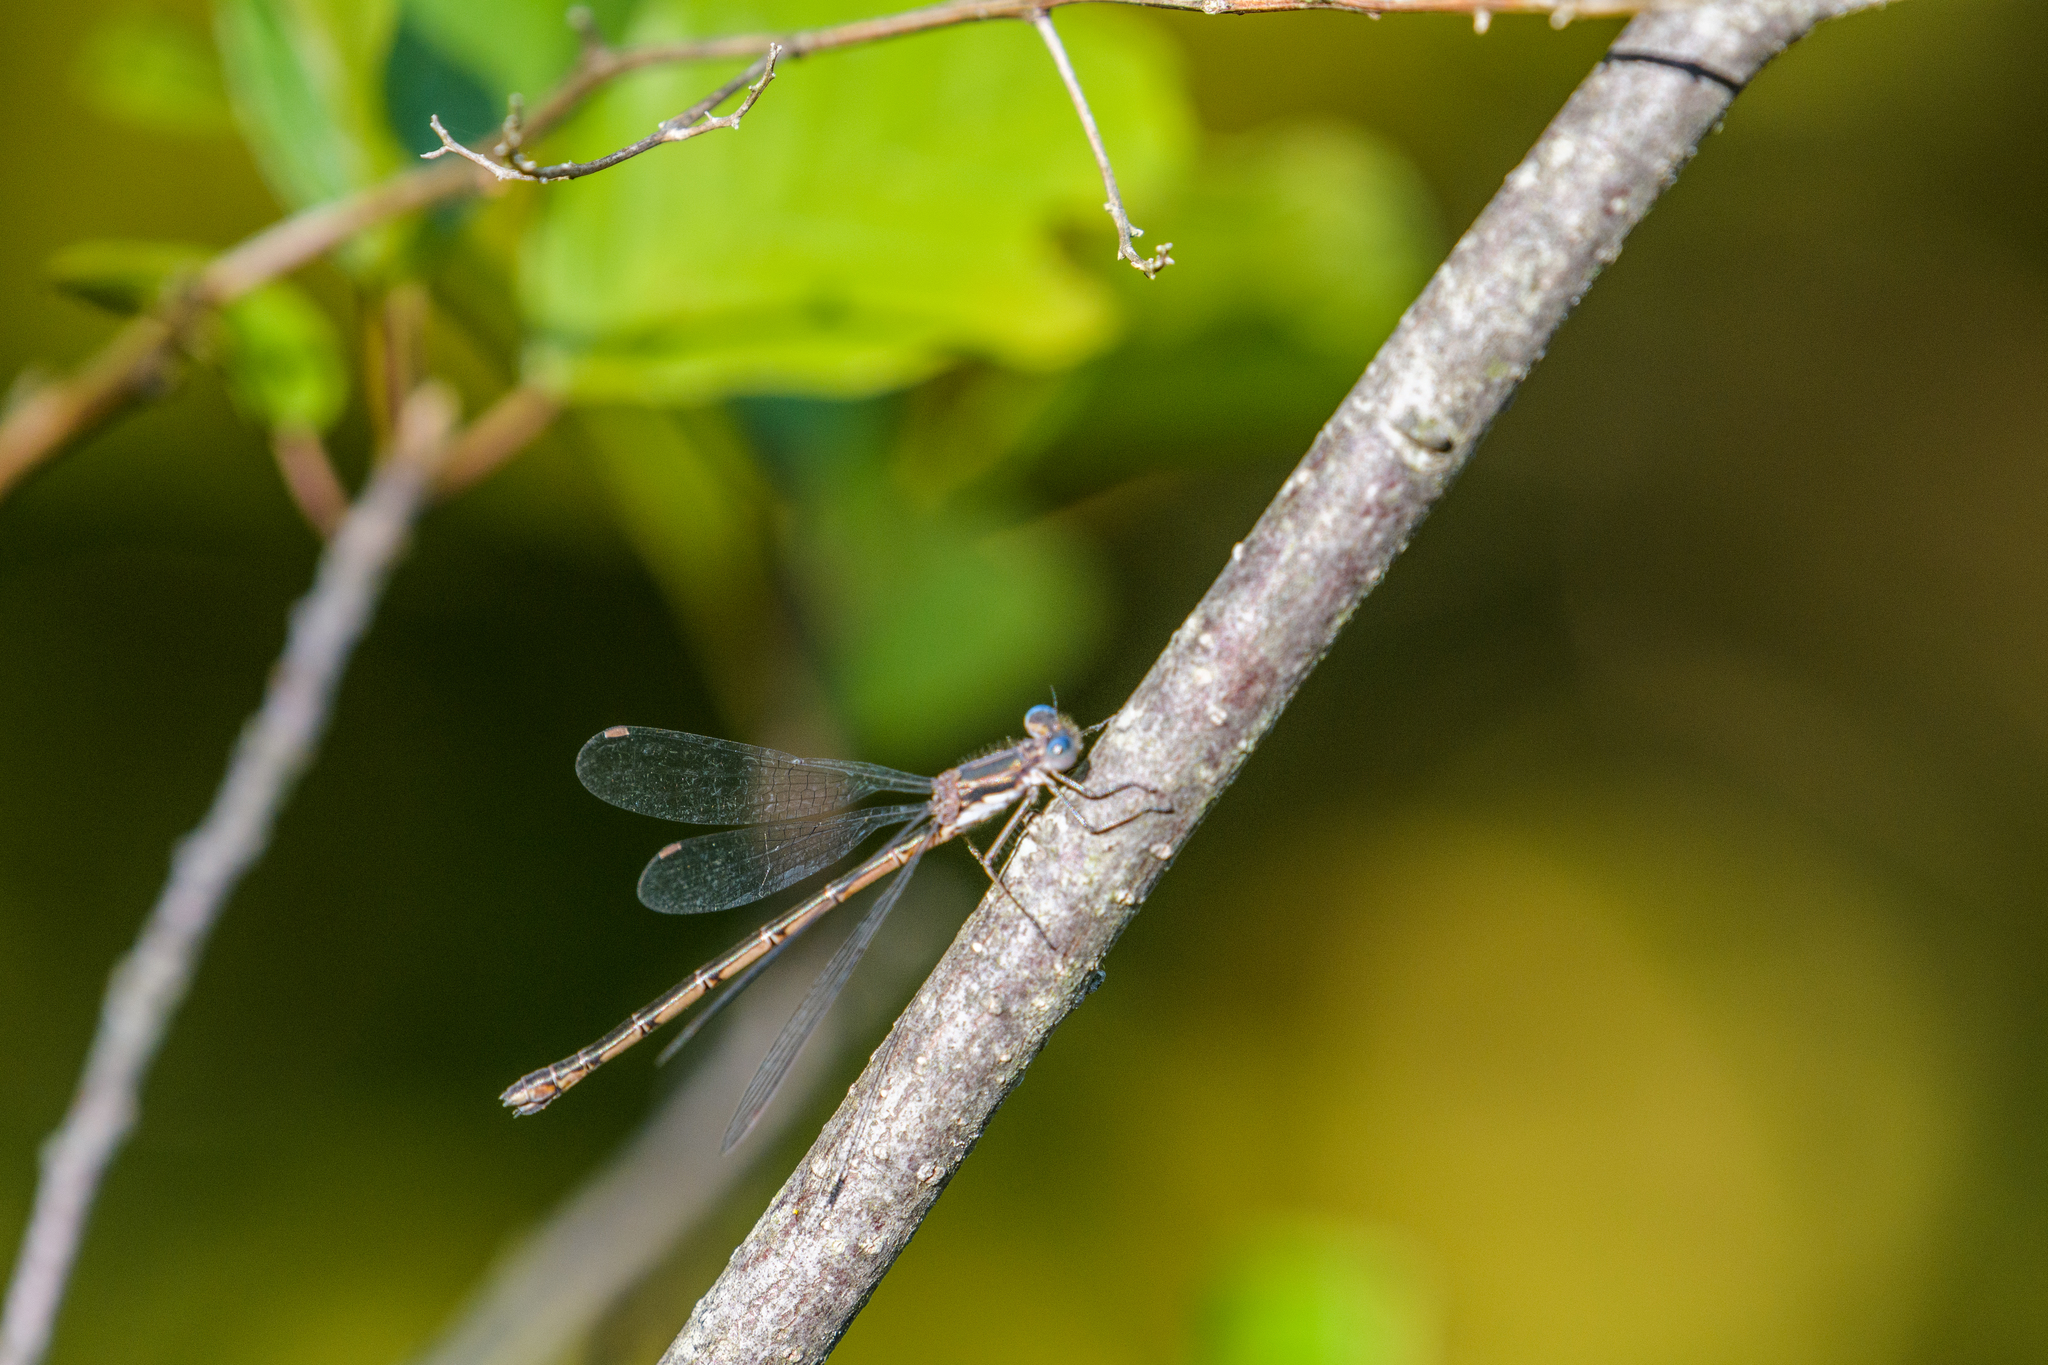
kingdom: Animalia
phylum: Arthropoda
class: Insecta
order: Odonata
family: Lestidae
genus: Lestes
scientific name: Lestes congener
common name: Spotted spreadwing
